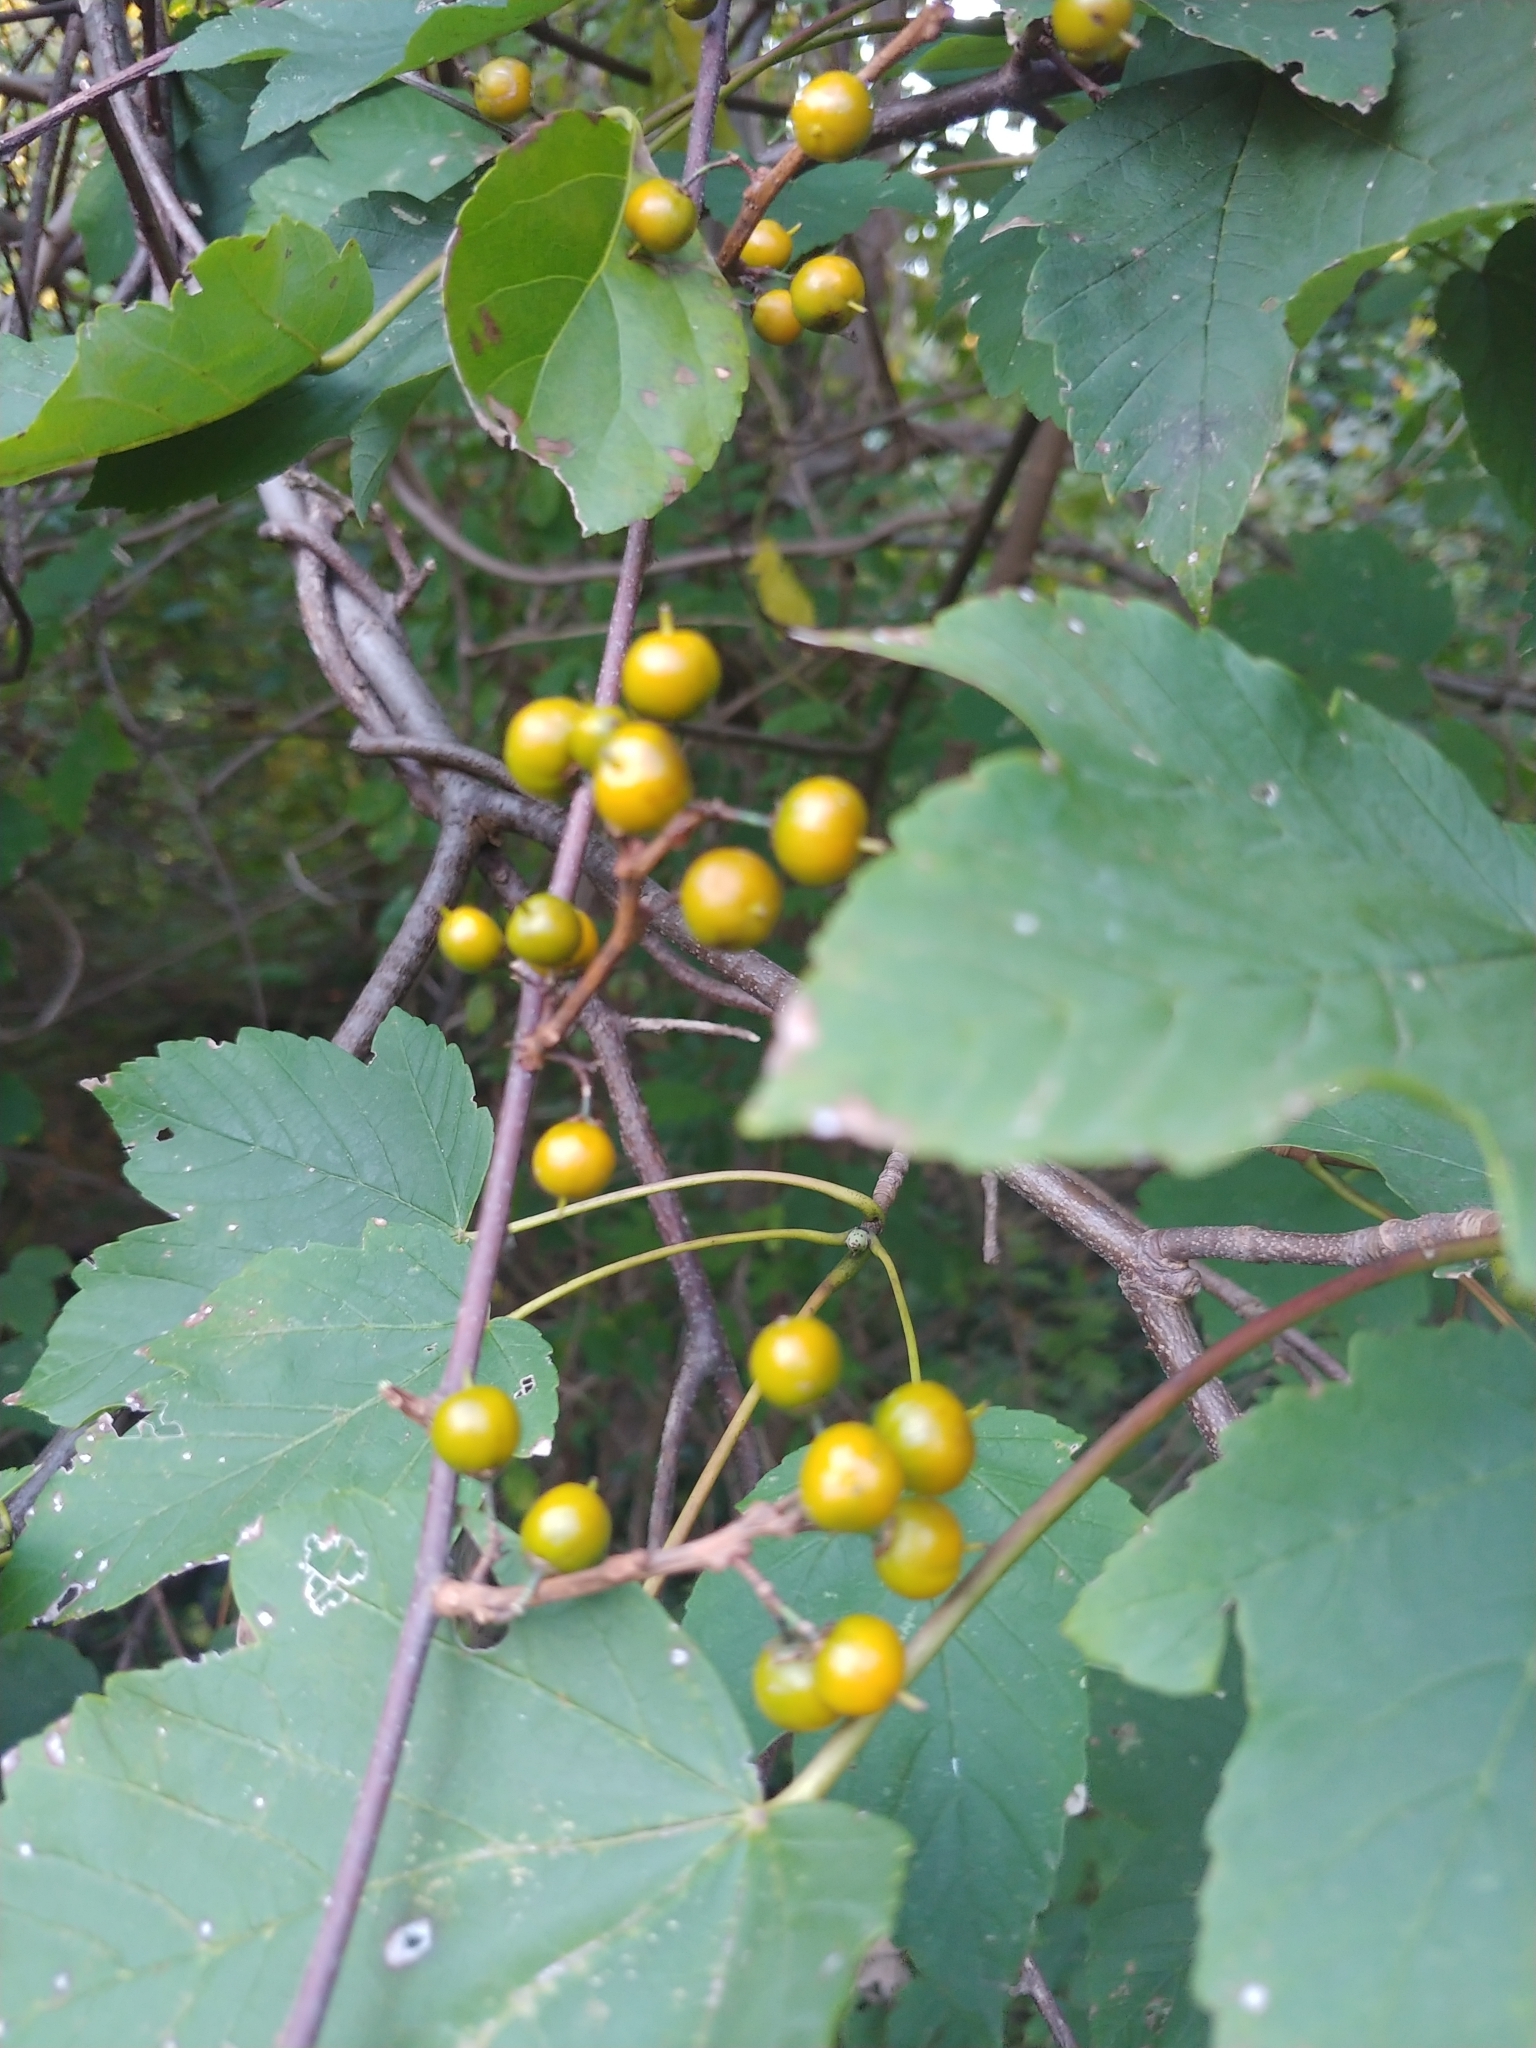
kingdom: Plantae
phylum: Tracheophyta
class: Magnoliopsida
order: Celastrales
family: Celastraceae
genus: Celastrus
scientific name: Celastrus orbiculatus
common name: Oriental bittersweet
